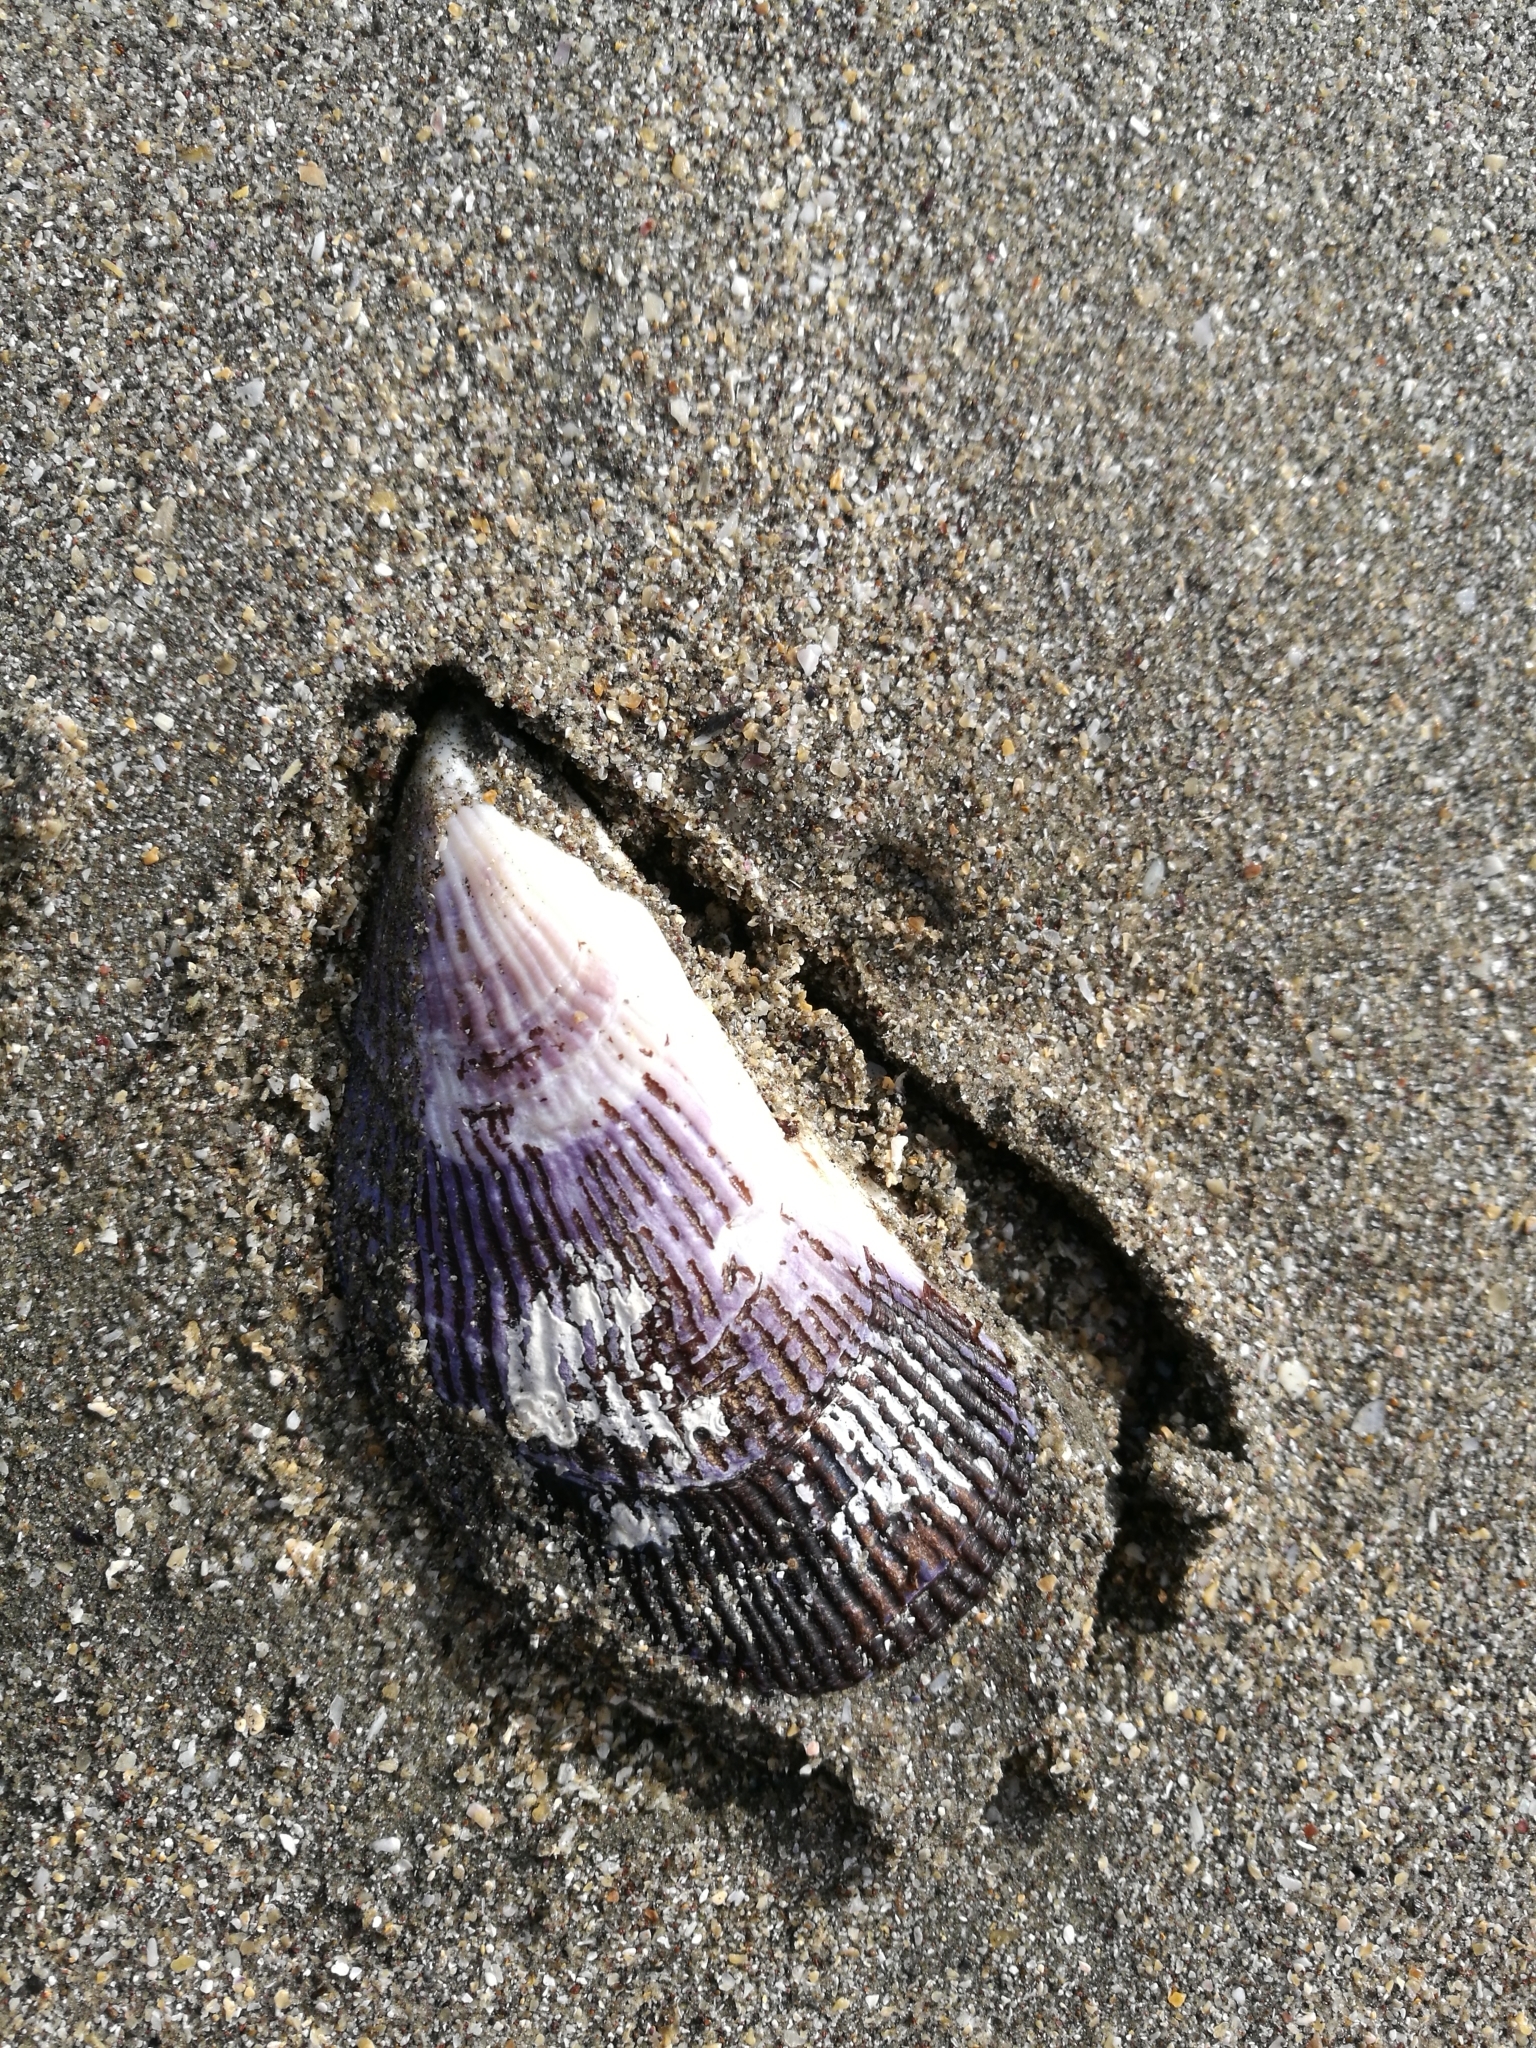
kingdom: Animalia
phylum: Mollusca
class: Bivalvia
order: Mytilida
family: Mytilidae
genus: Aulacomya
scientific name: Aulacomya maoriana
